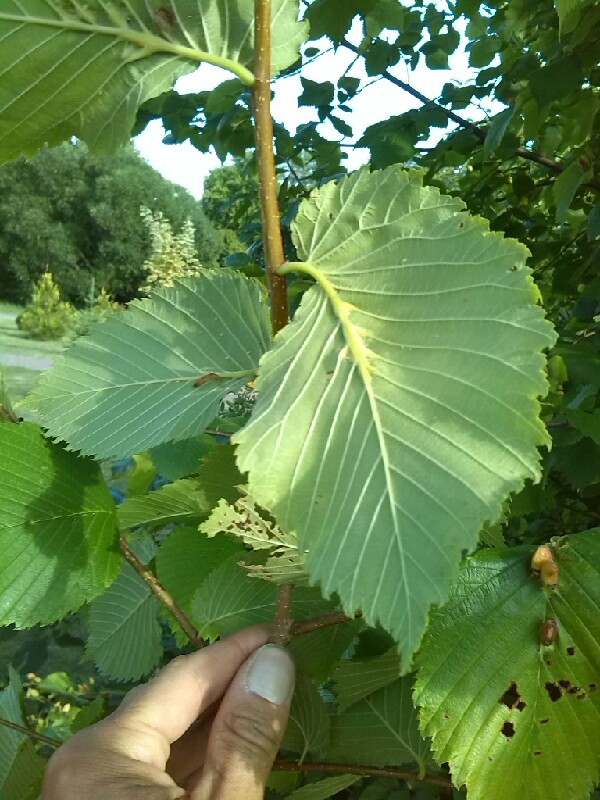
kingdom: Plantae
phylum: Tracheophyta
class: Magnoliopsida
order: Rosales
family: Ulmaceae
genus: Ulmus
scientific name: Ulmus laevis
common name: European white-elm
